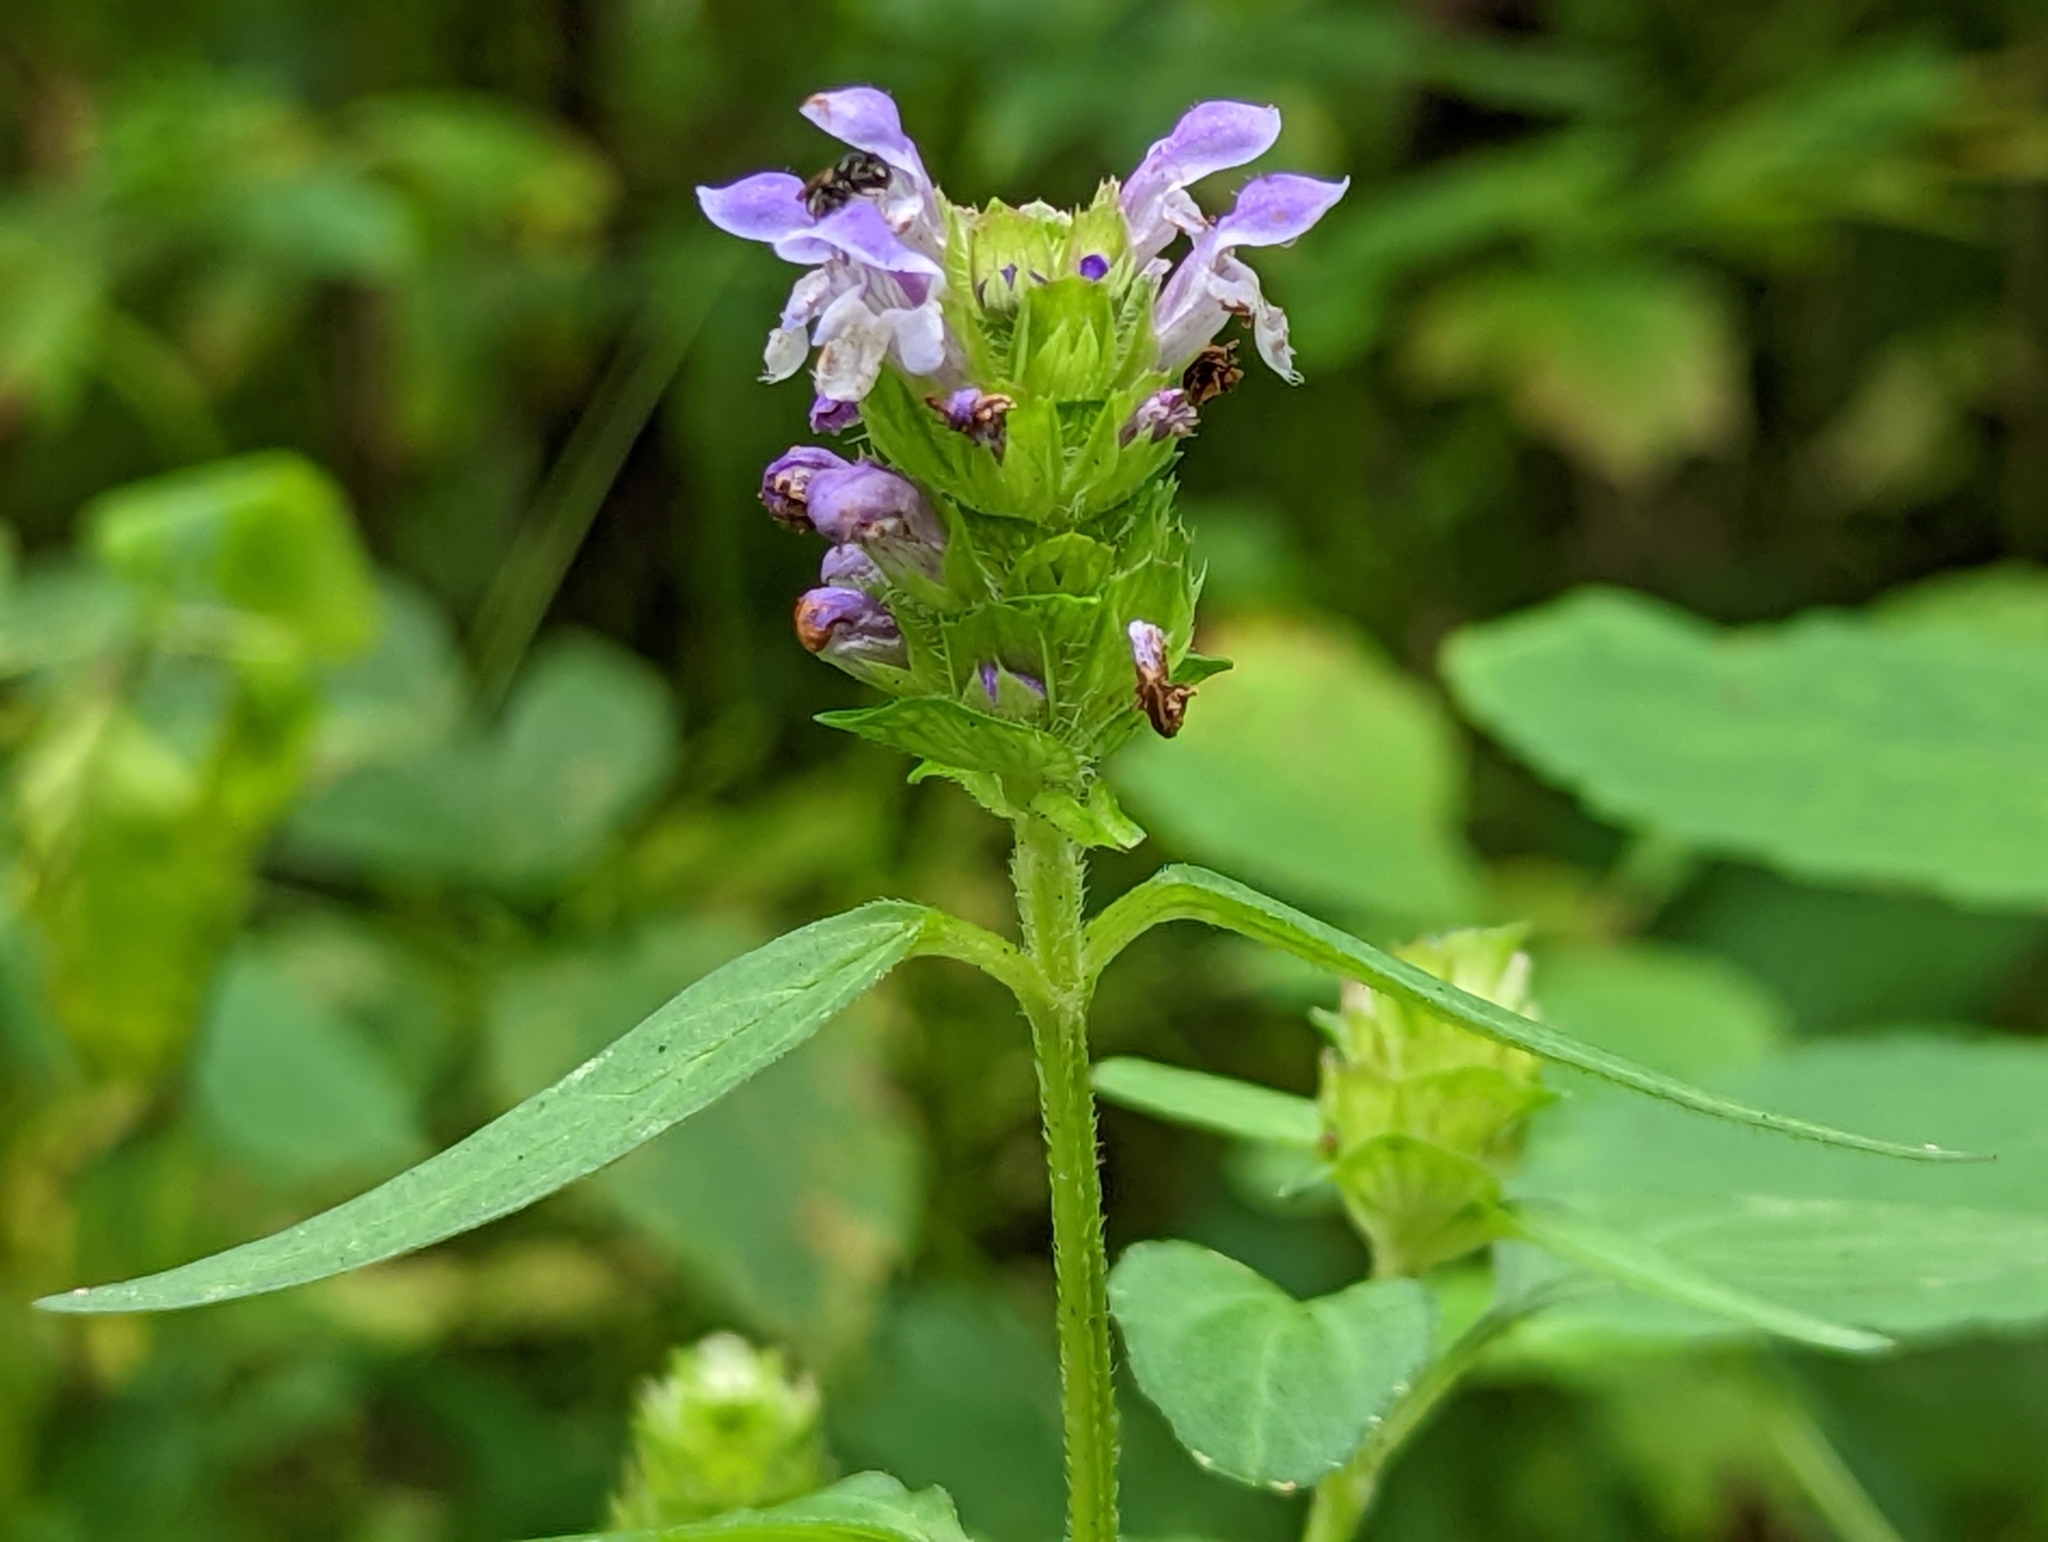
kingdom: Plantae
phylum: Tracheophyta
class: Magnoliopsida
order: Lamiales
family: Lamiaceae
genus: Prunella
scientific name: Prunella vulgaris
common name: Heal-all
